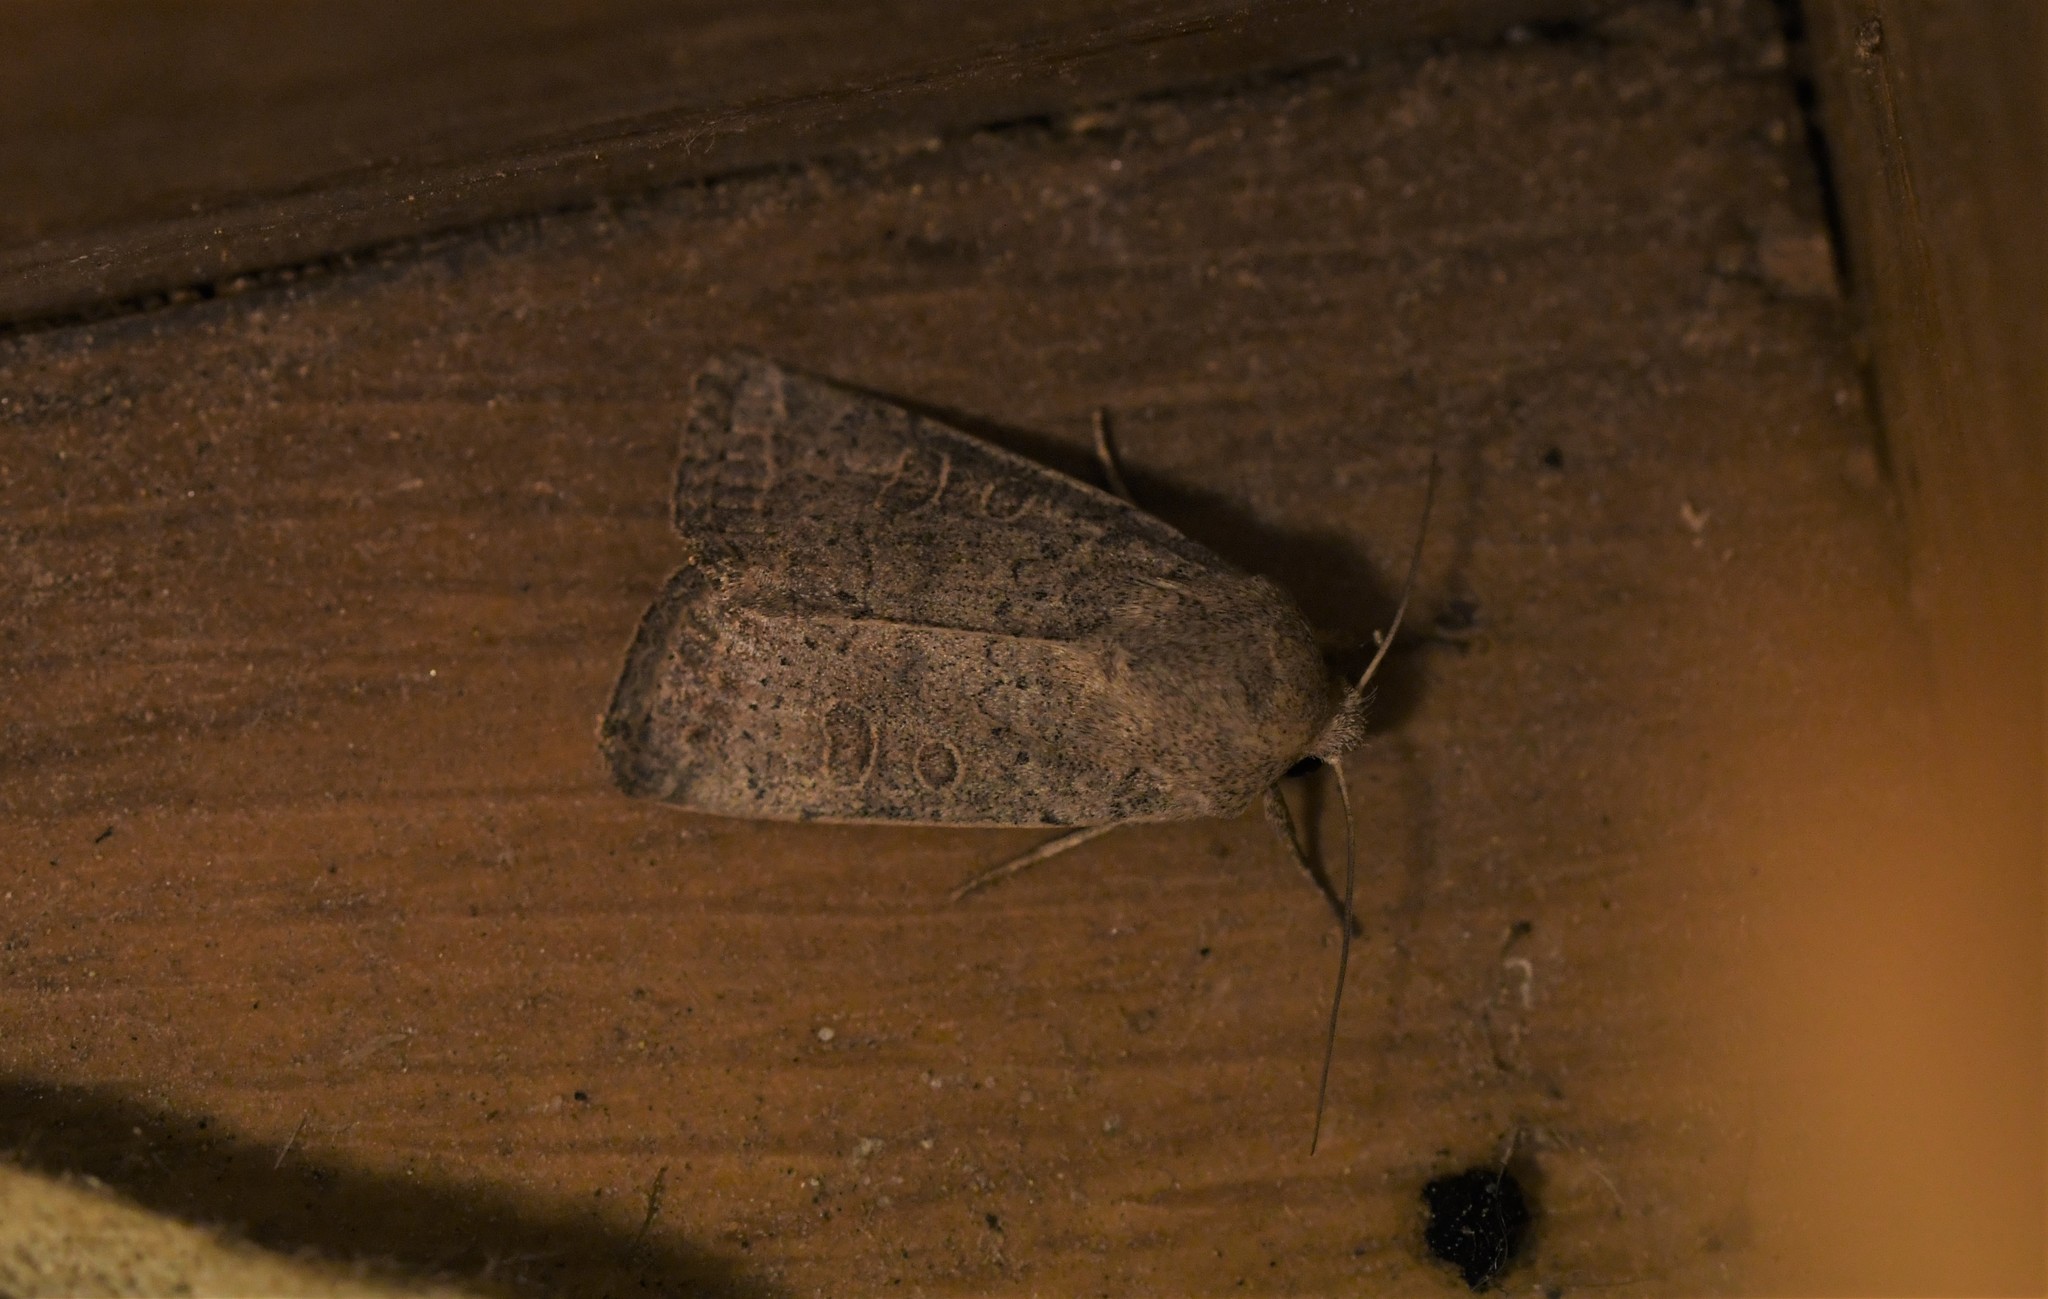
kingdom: Animalia
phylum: Arthropoda
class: Insecta
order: Lepidoptera
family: Noctuidae
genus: Hoplodrina
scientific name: Hoplodrina ambigua
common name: Vine's rustic
